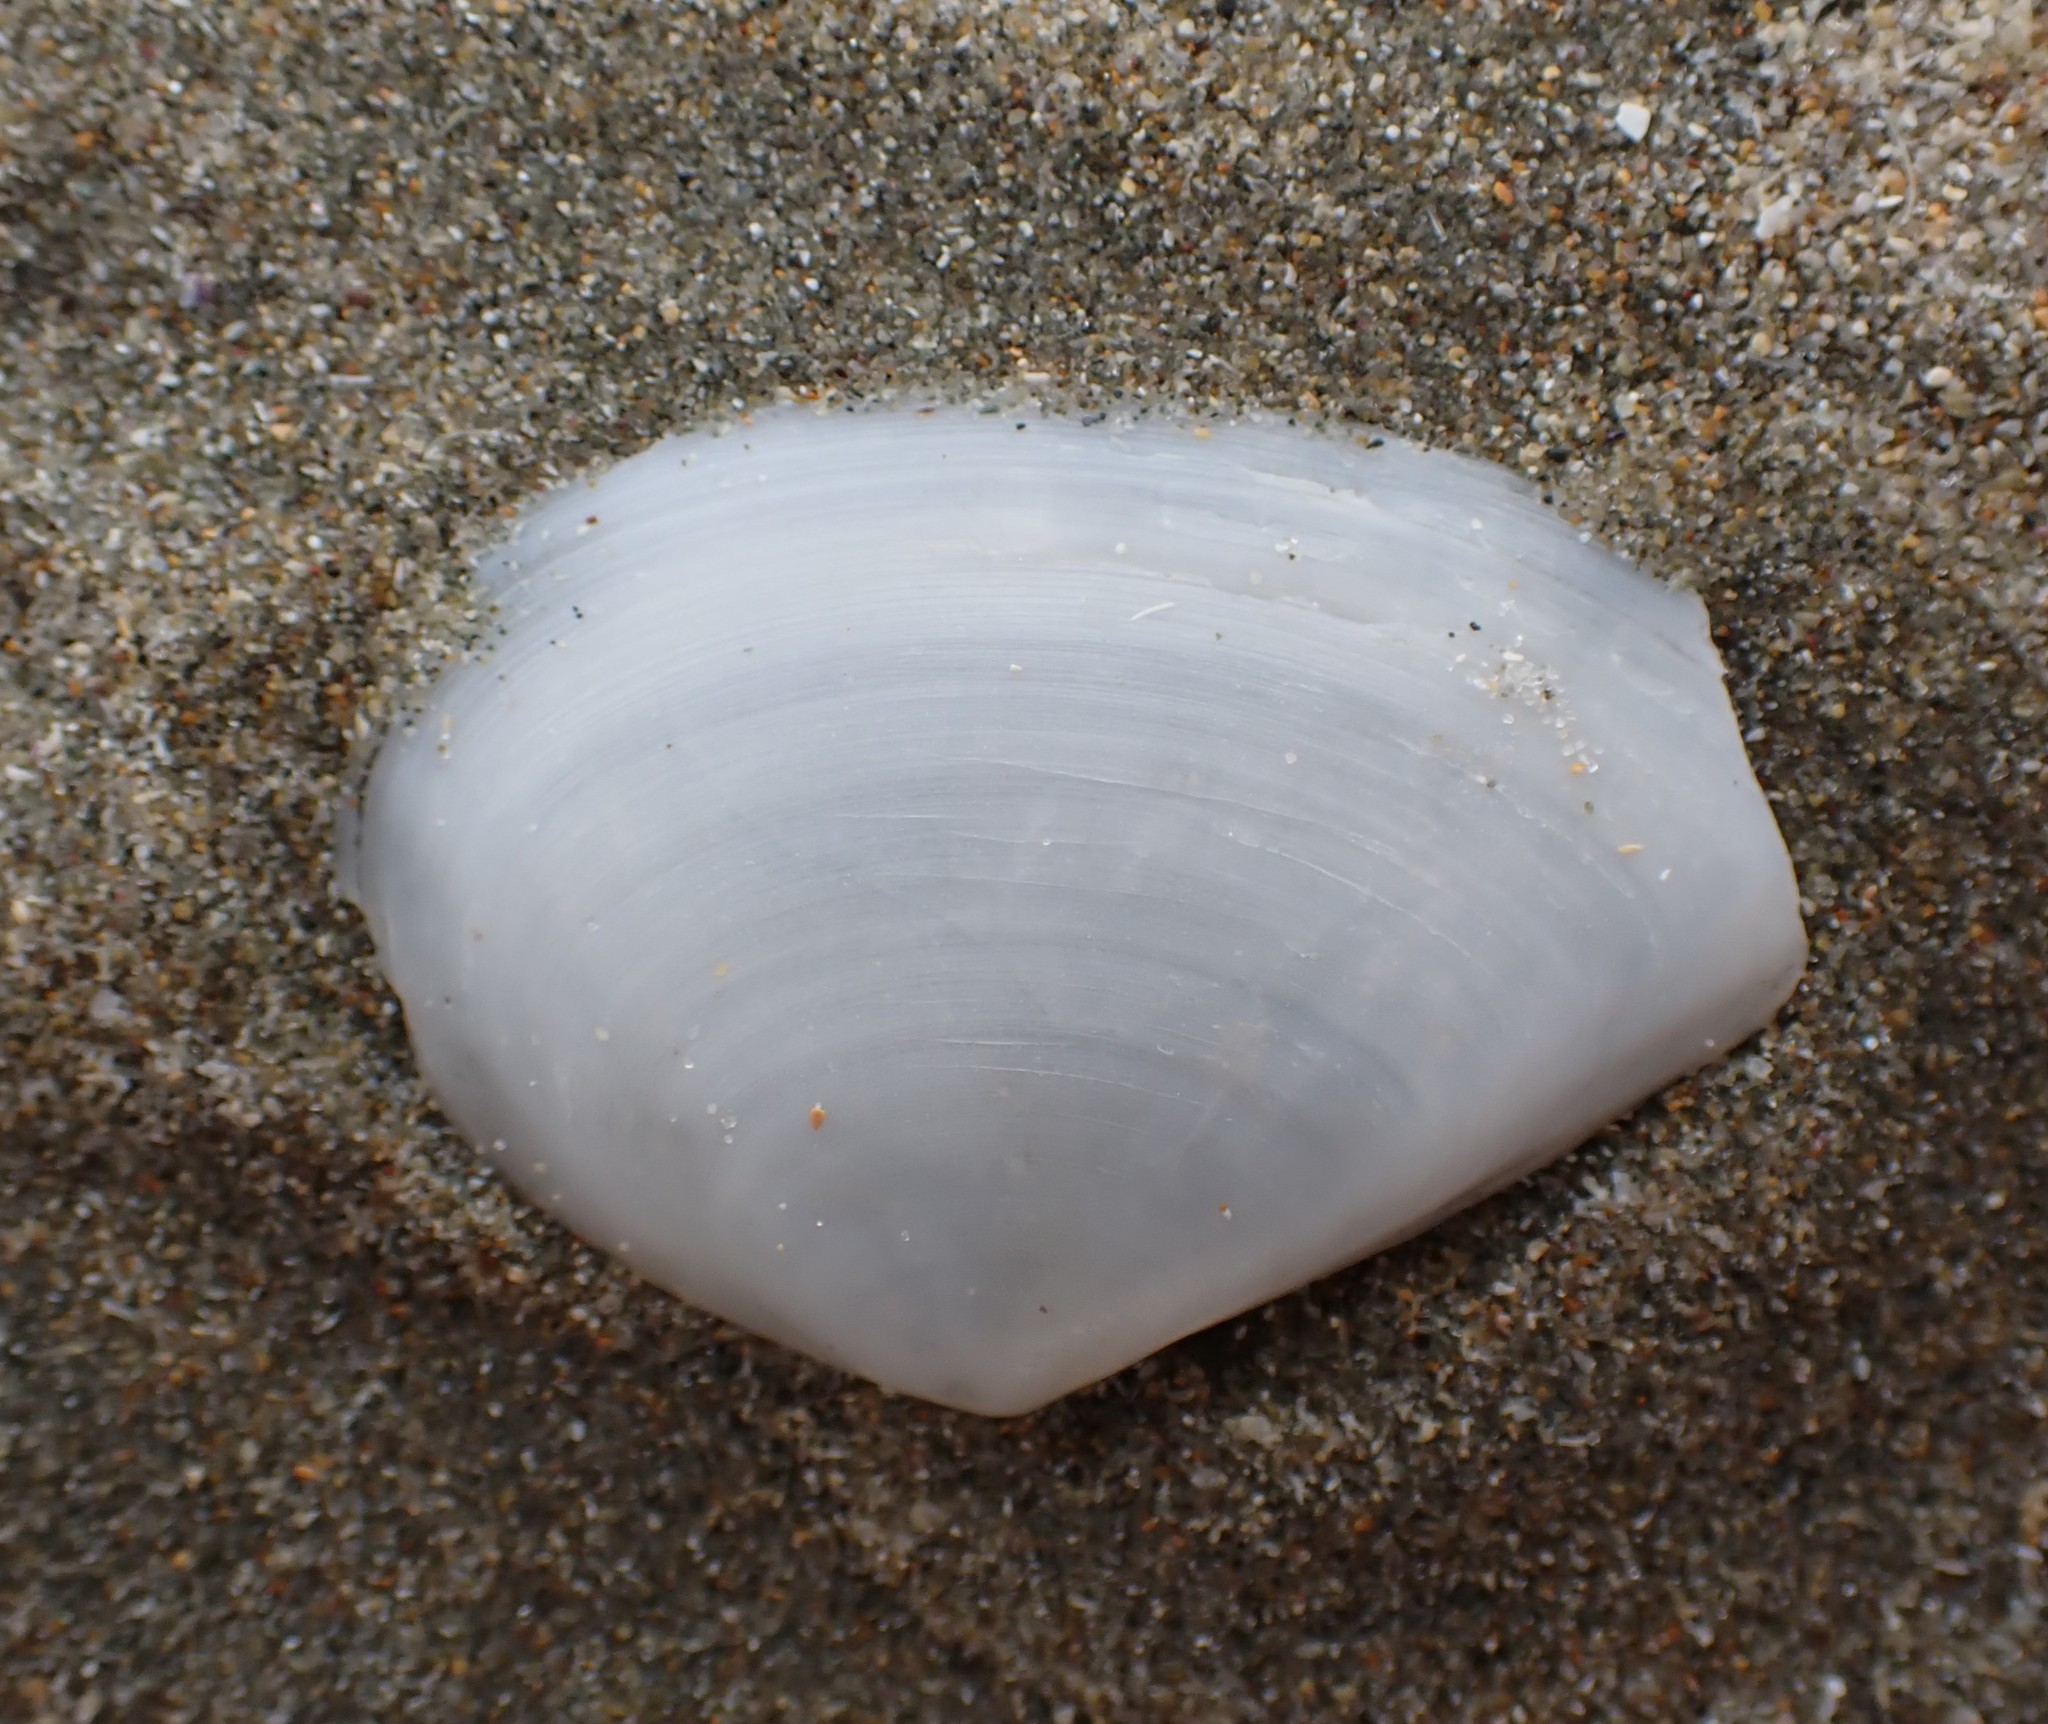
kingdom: Animalia
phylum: Mollusca
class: Bivalvia
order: Cardiida
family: Tellinidae
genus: Bartschicoma
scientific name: Bartschicoma gaimardi
